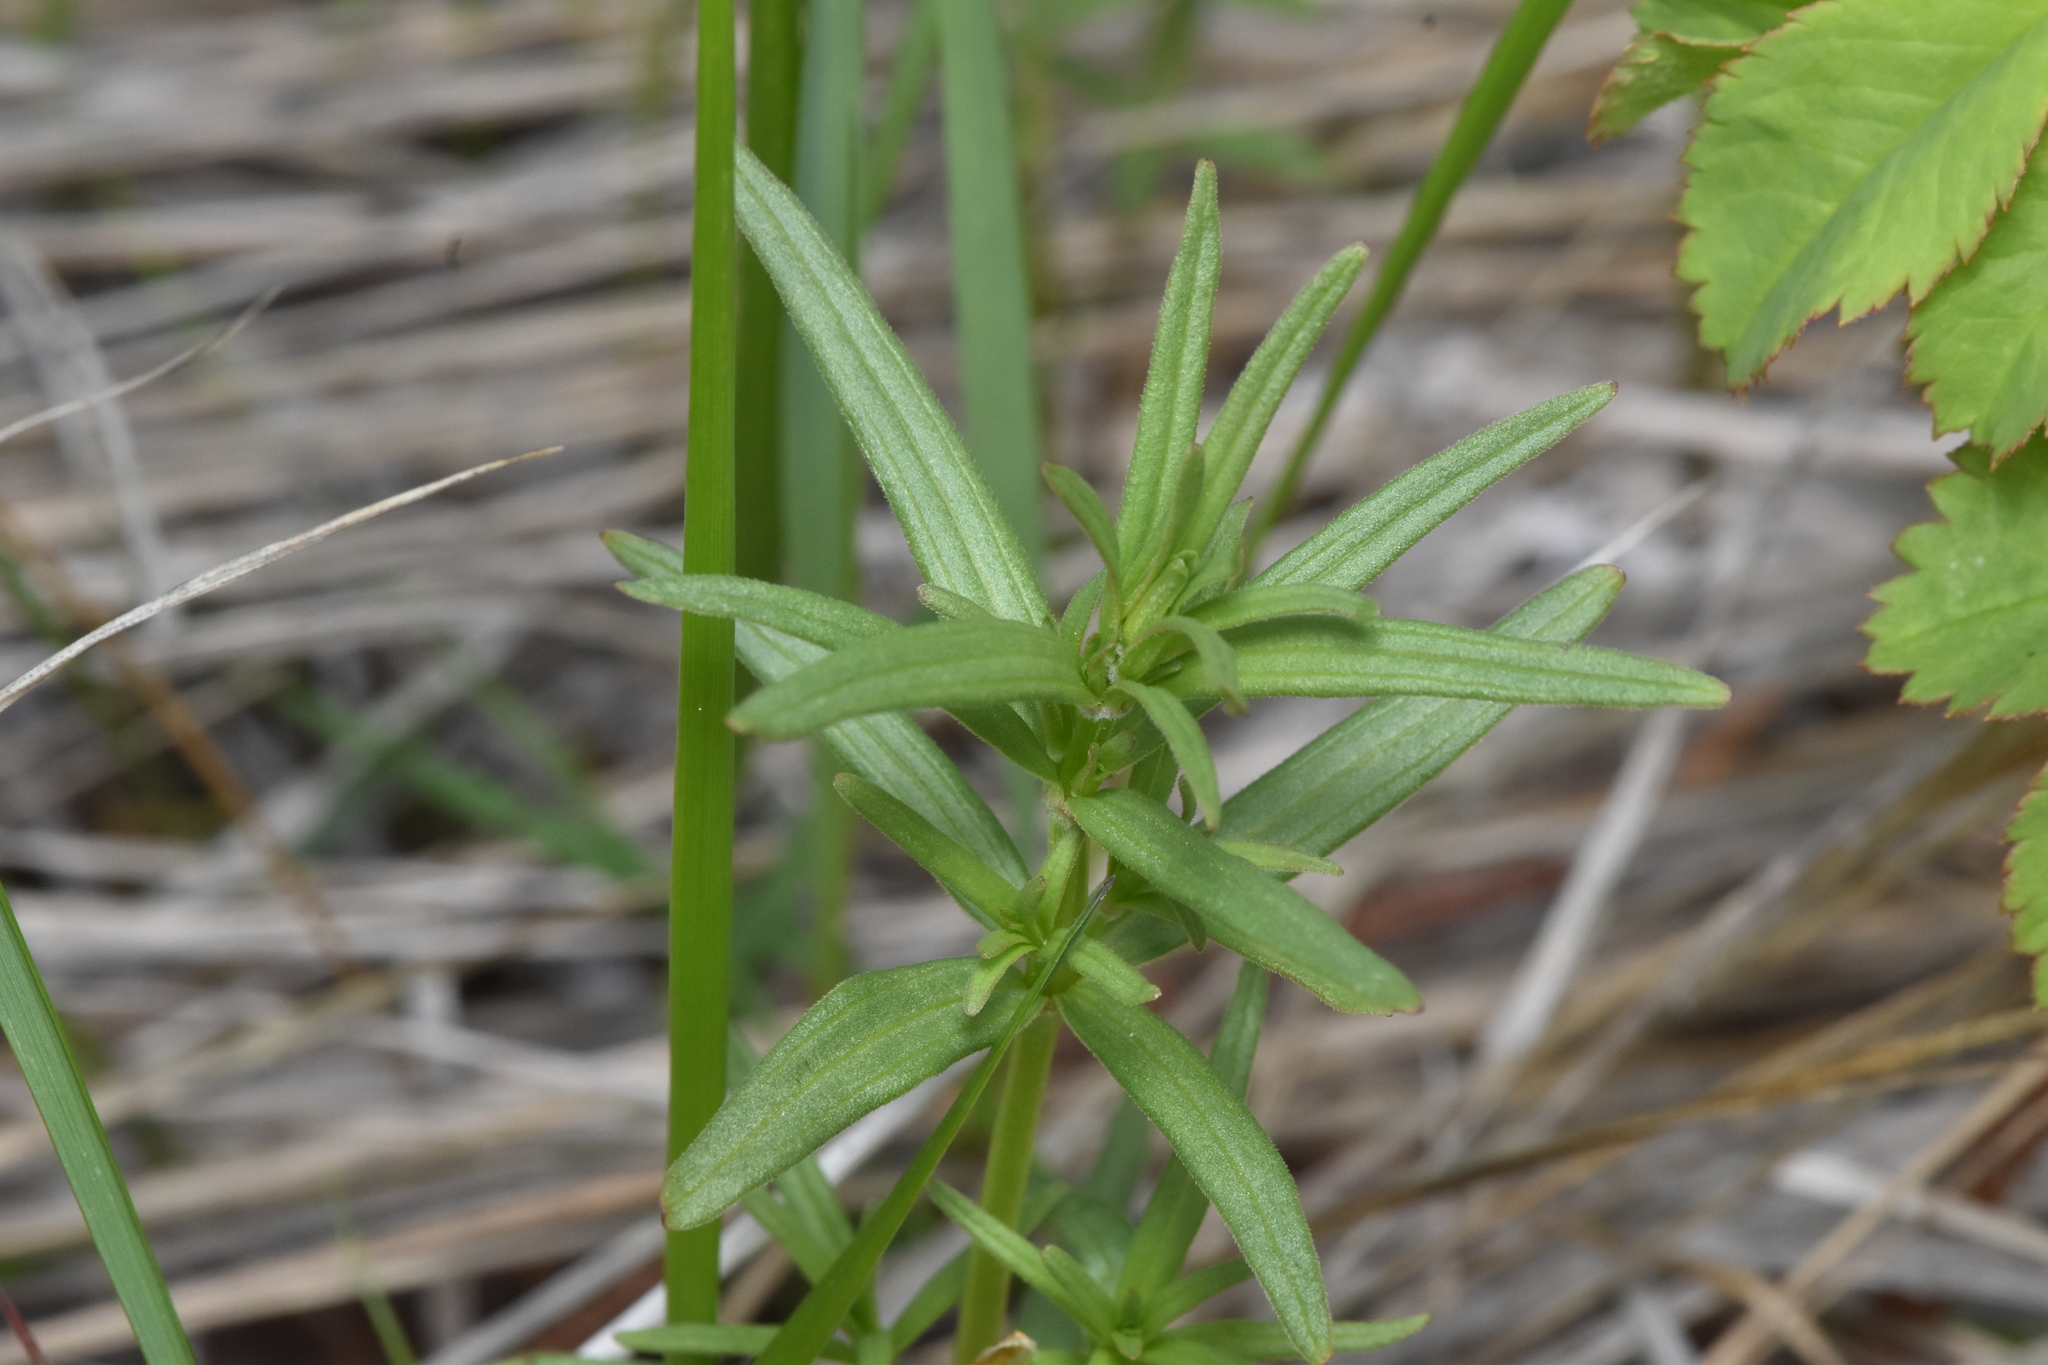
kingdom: Plantae
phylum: Tracheophyta
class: Magnoliopsida
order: Gentianales
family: Rubiaceae
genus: Galium
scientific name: Galium boreale
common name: Northern bedstraw
